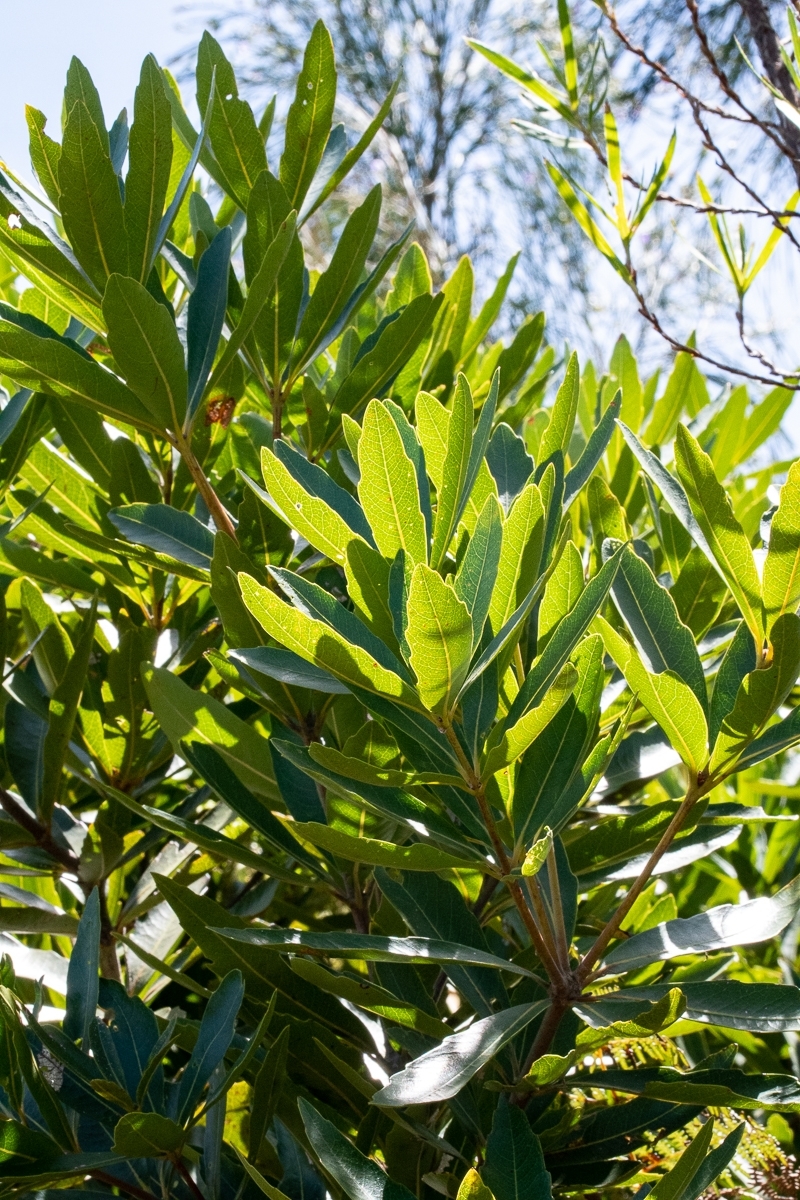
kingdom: Plantae
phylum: Tracheophyta
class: Magnoliopsida
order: Proteales
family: Proteaceae
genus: Brabejum
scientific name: Brabejum stellatifolium
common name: Wild almond
